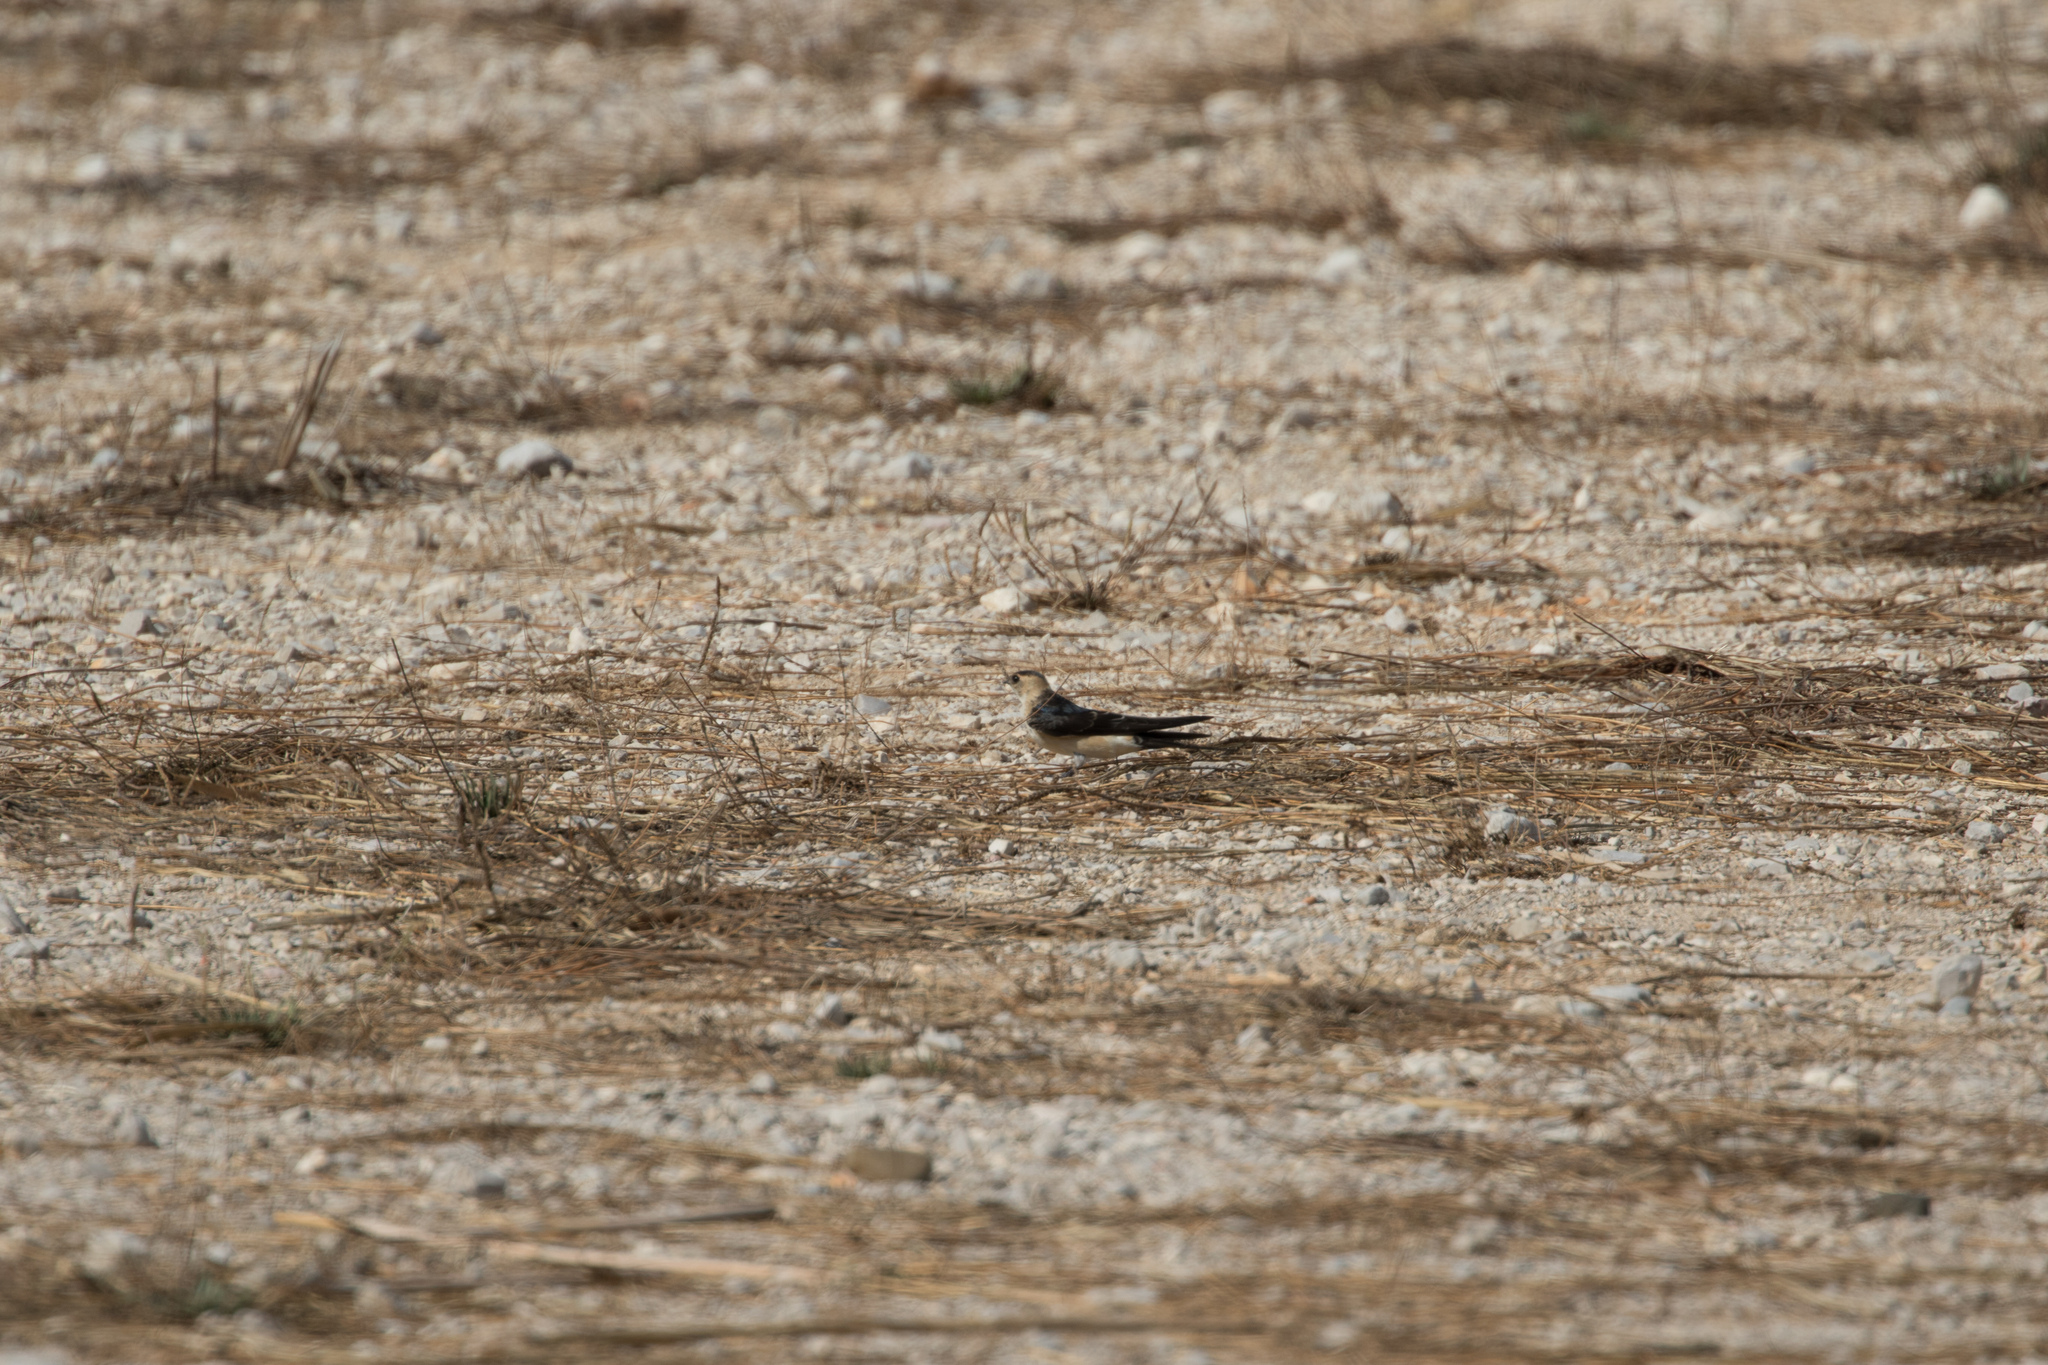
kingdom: Animalia
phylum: Chordata
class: Aves
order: Passeriformes
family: Hirundinidae
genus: Cecropis
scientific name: Cecropis daurica
